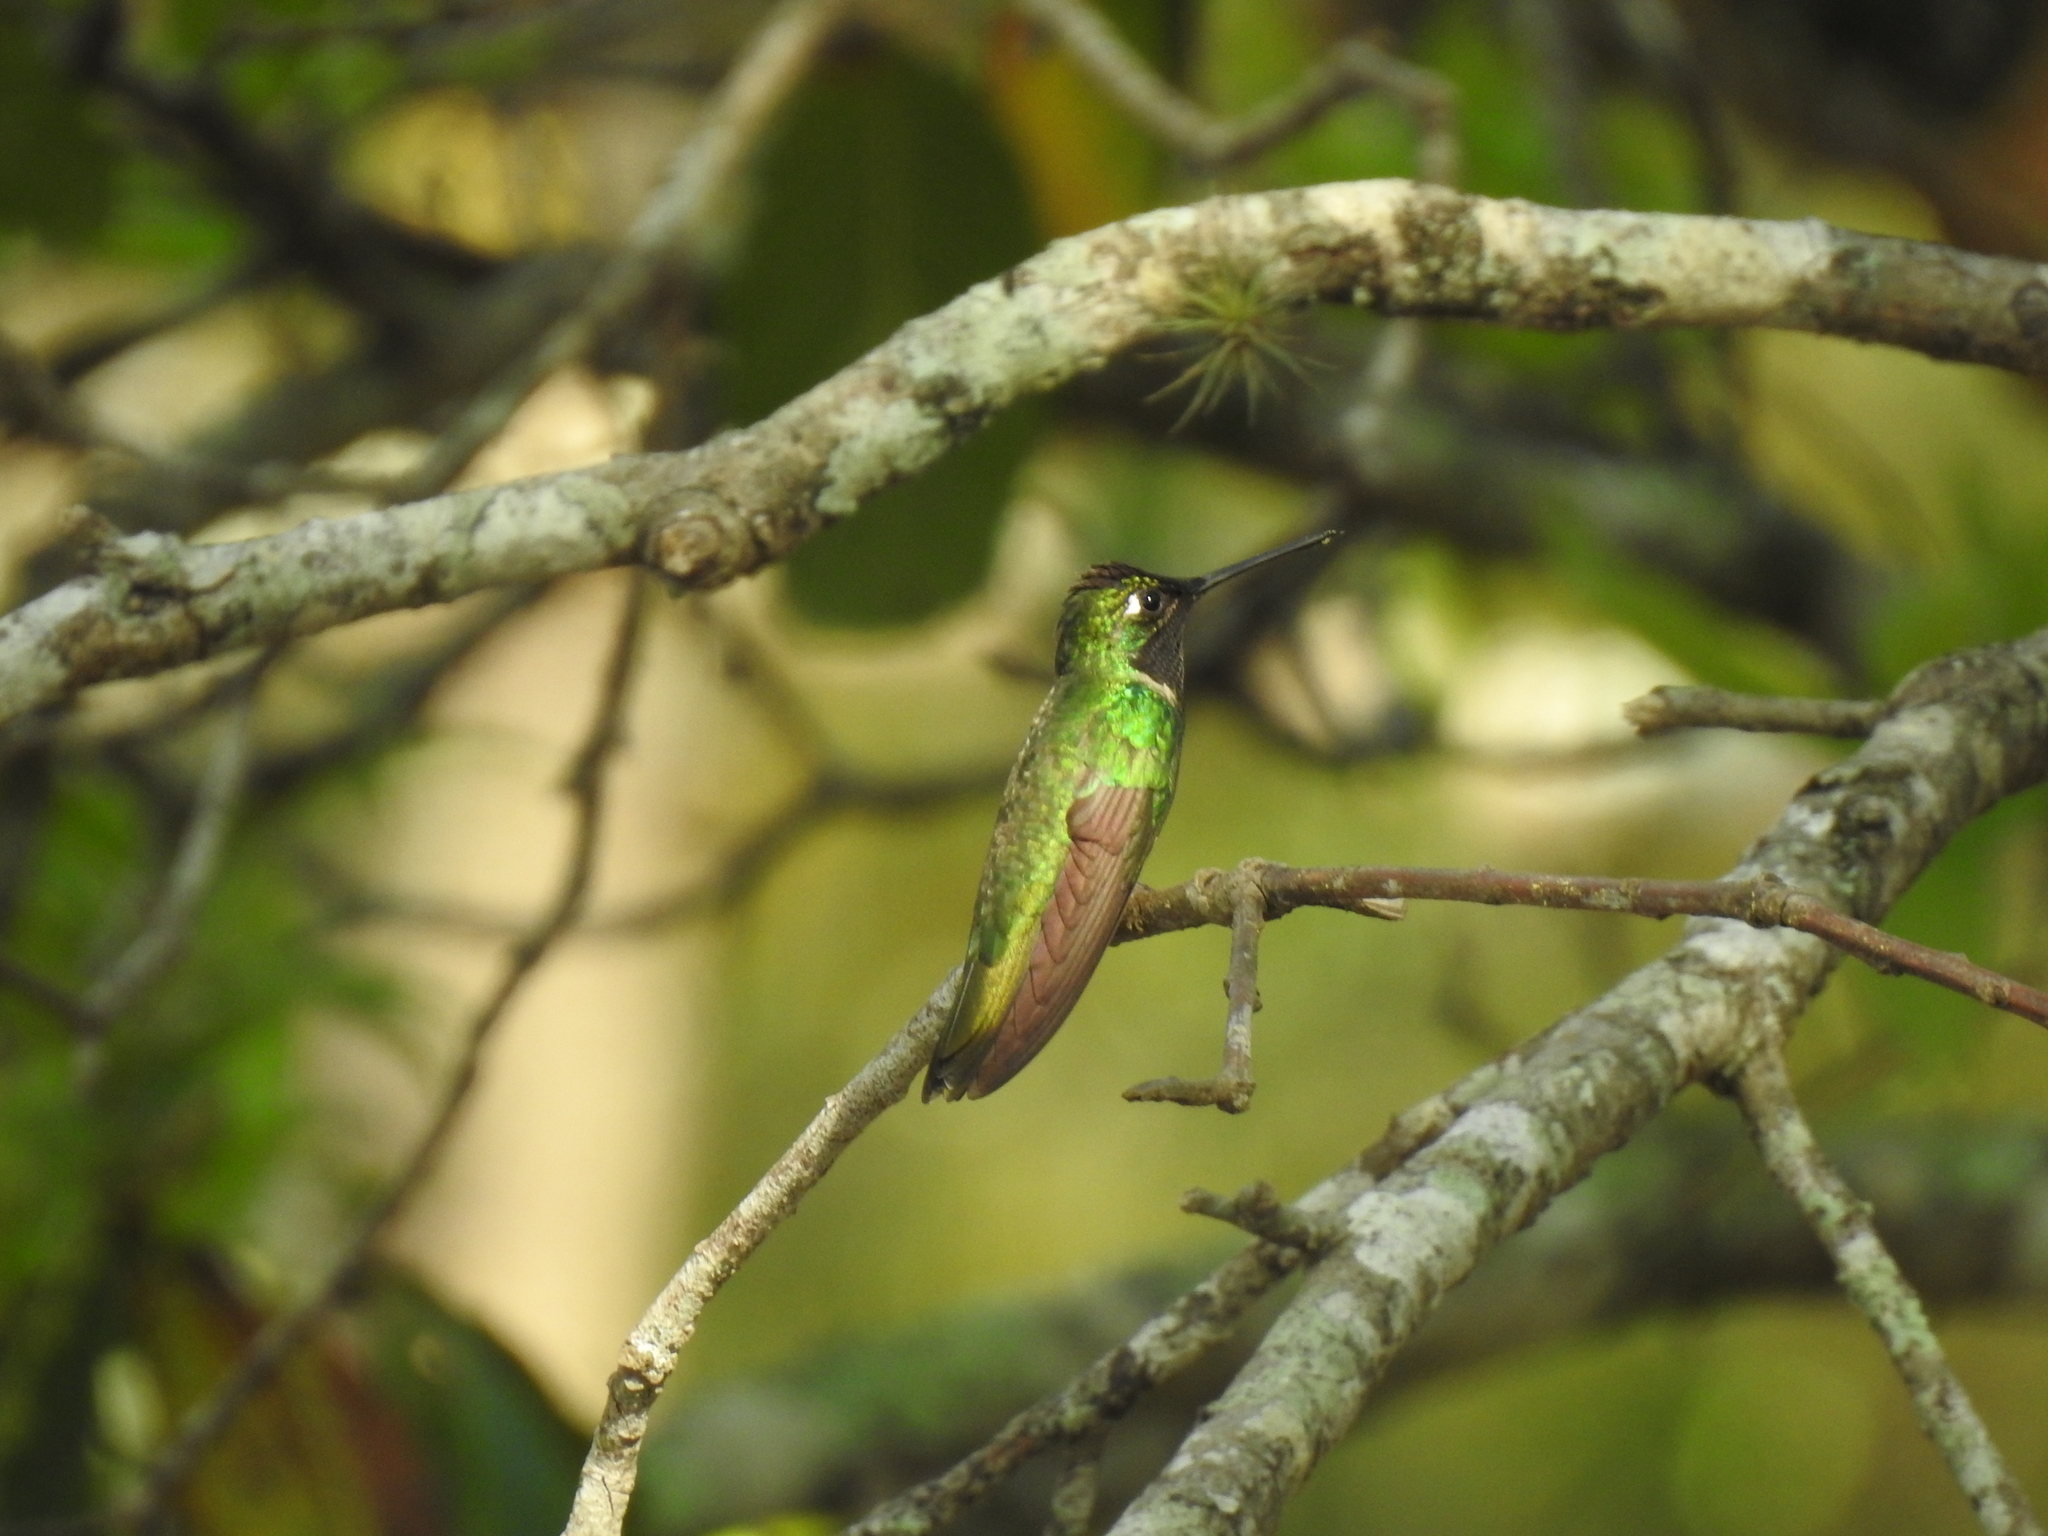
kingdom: Animalia
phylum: Chordata
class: Aves
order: Apodiformes
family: Trochilidae
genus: Eugenes
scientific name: Eugenes fulgens
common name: Magnificent hummingbird
